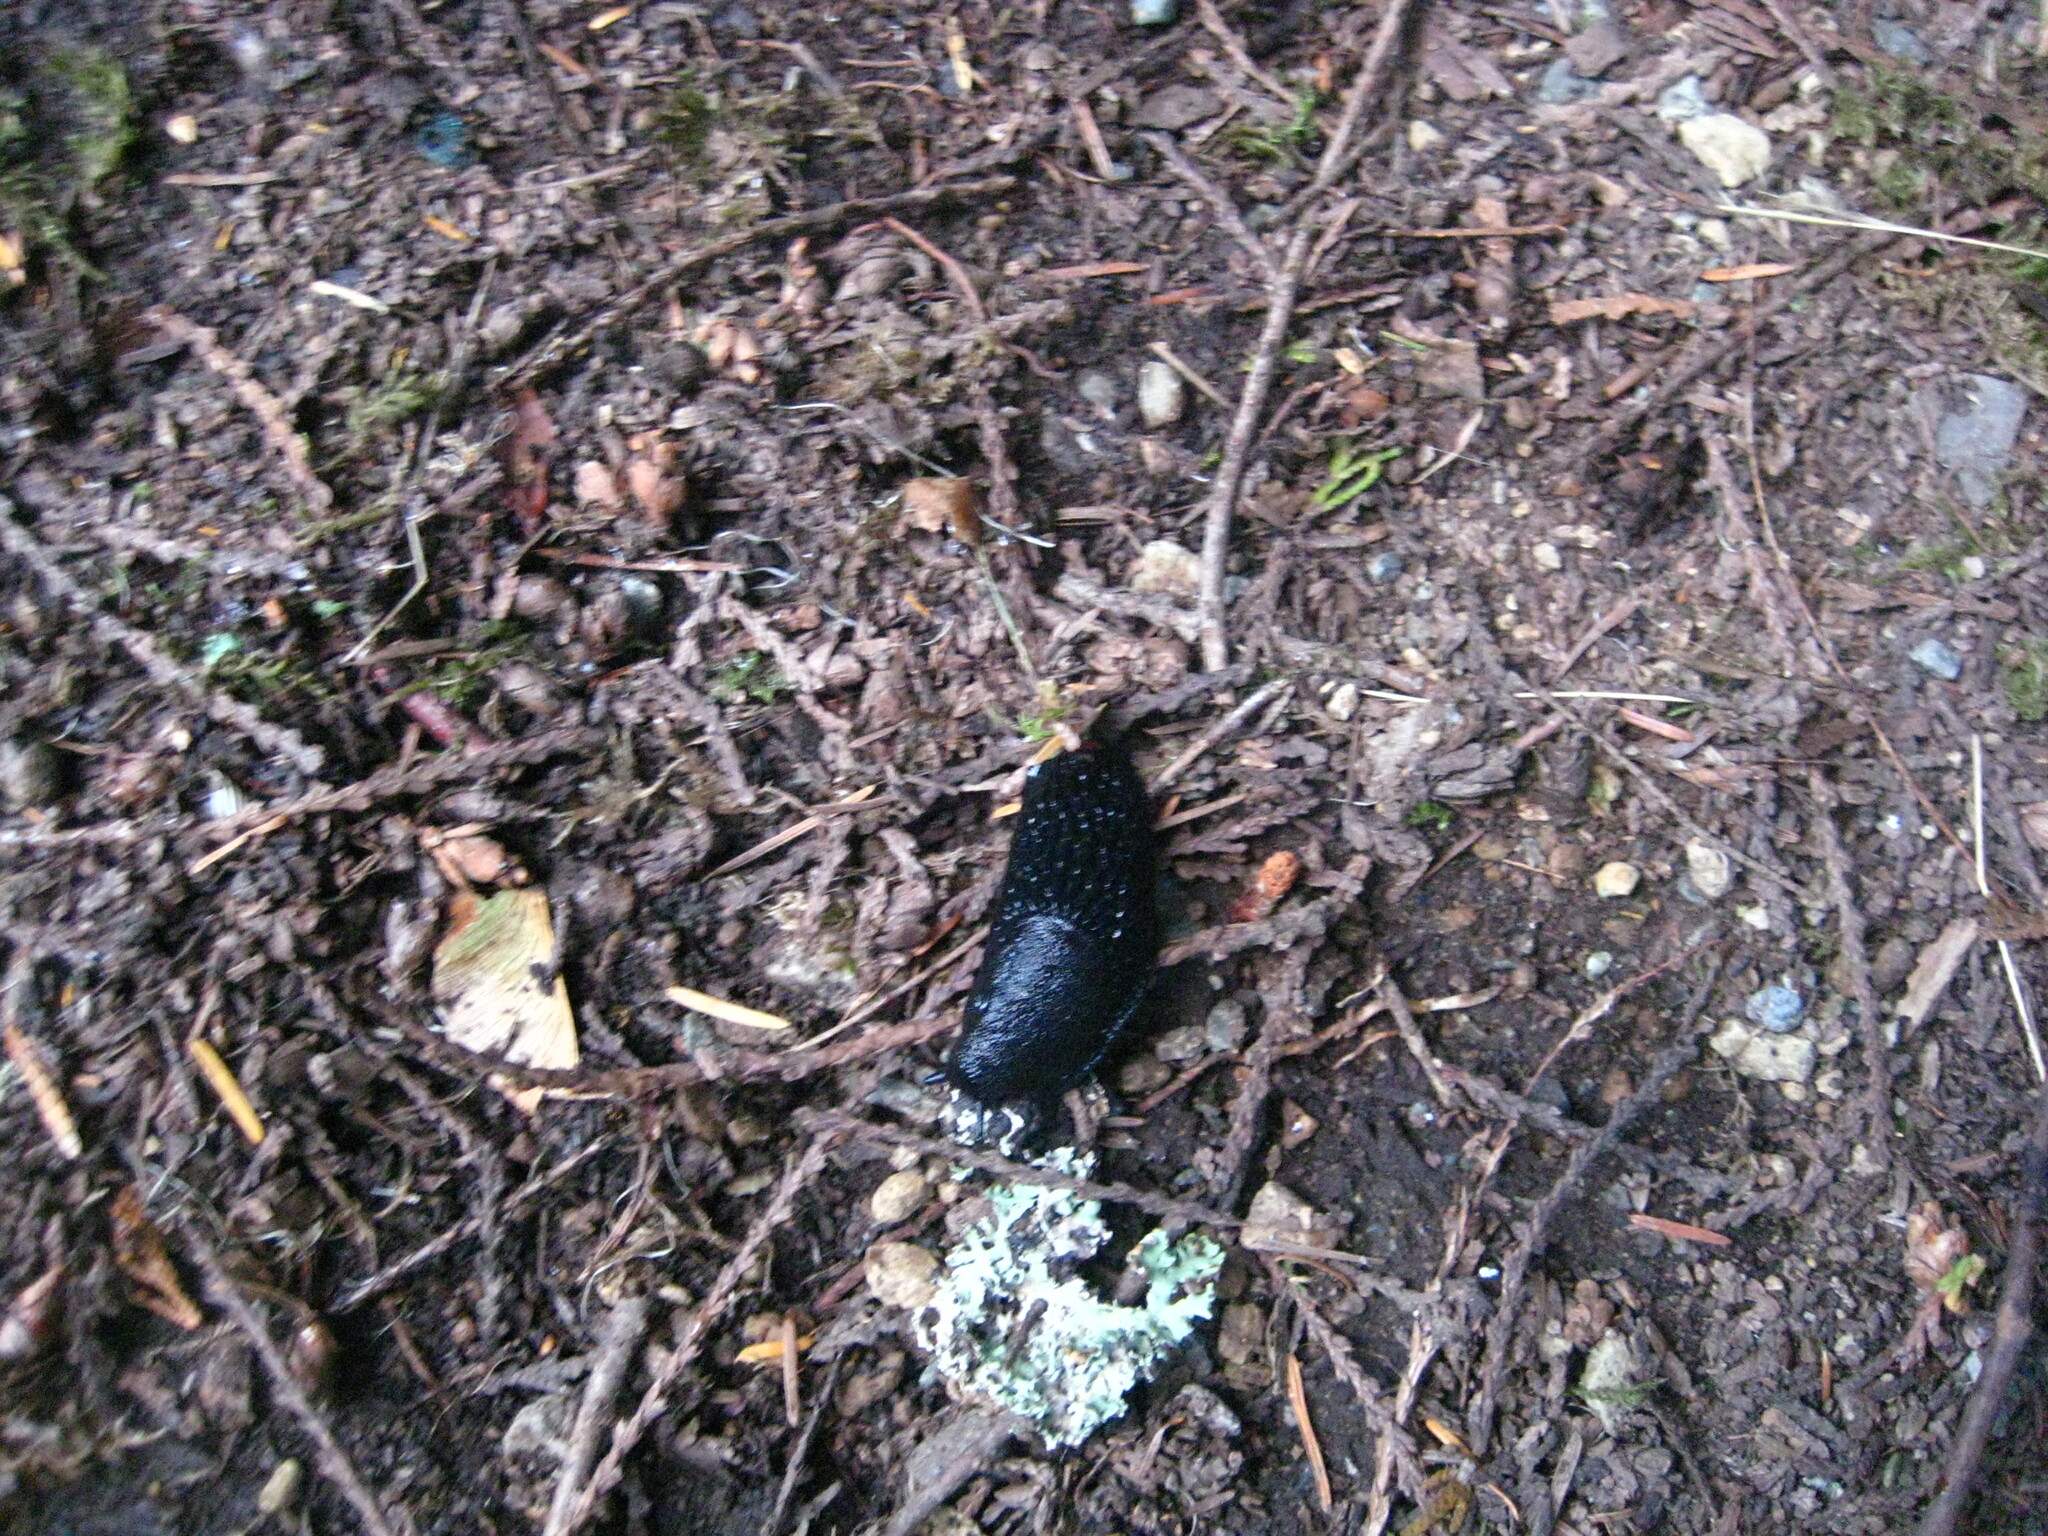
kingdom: Animalia
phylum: Mollusca
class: Gastropoda
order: Stylommatophora
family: Arionidae
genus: Arion
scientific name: Arion ater
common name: Black arion
